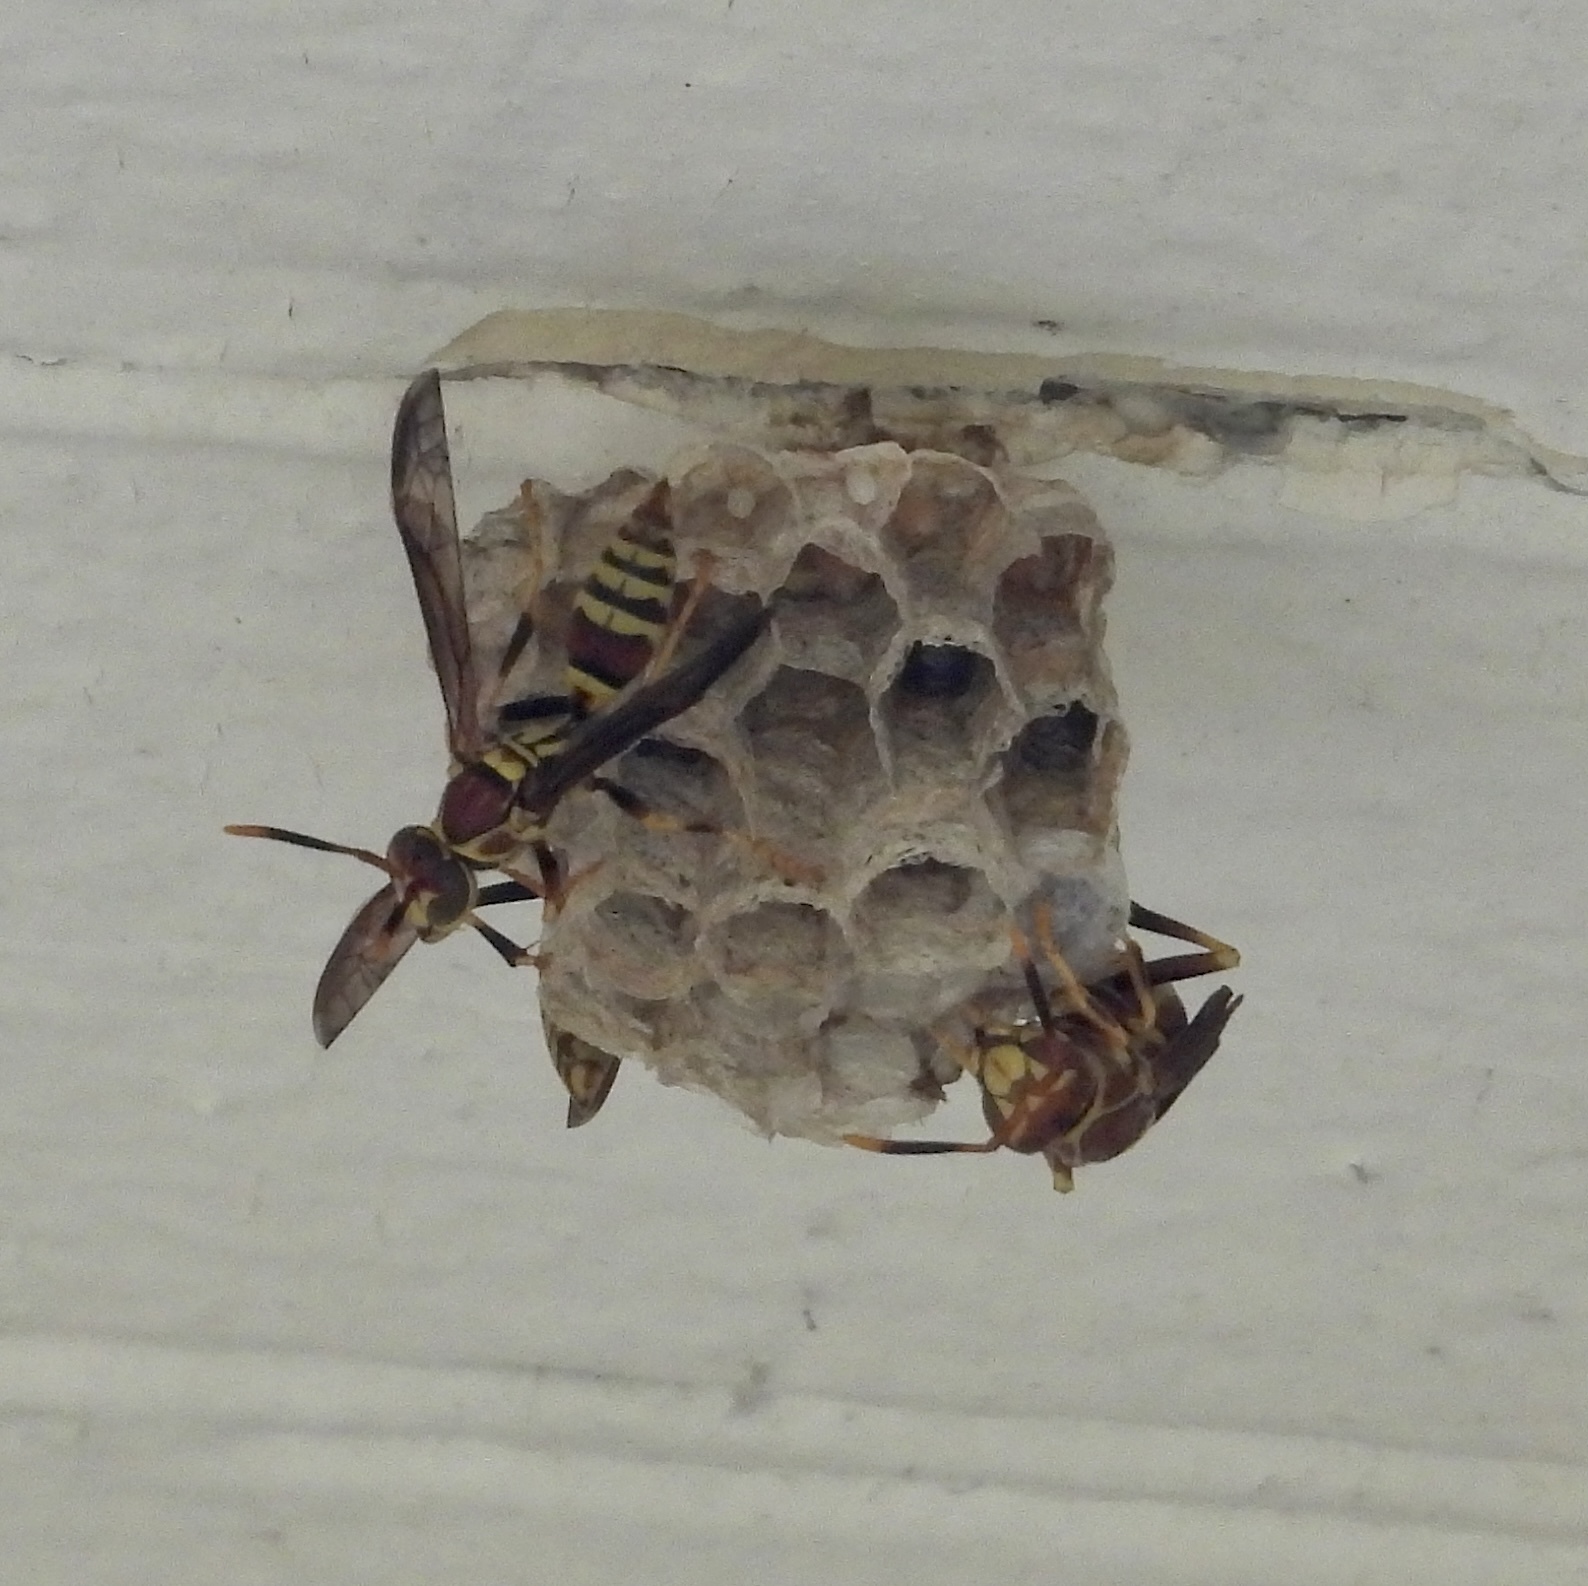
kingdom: Animalia
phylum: Arthropoda
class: Insecta
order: Hymenoptera
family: Eumenidae
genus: Polistes
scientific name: Polistes exclamans
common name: Paper wasp
